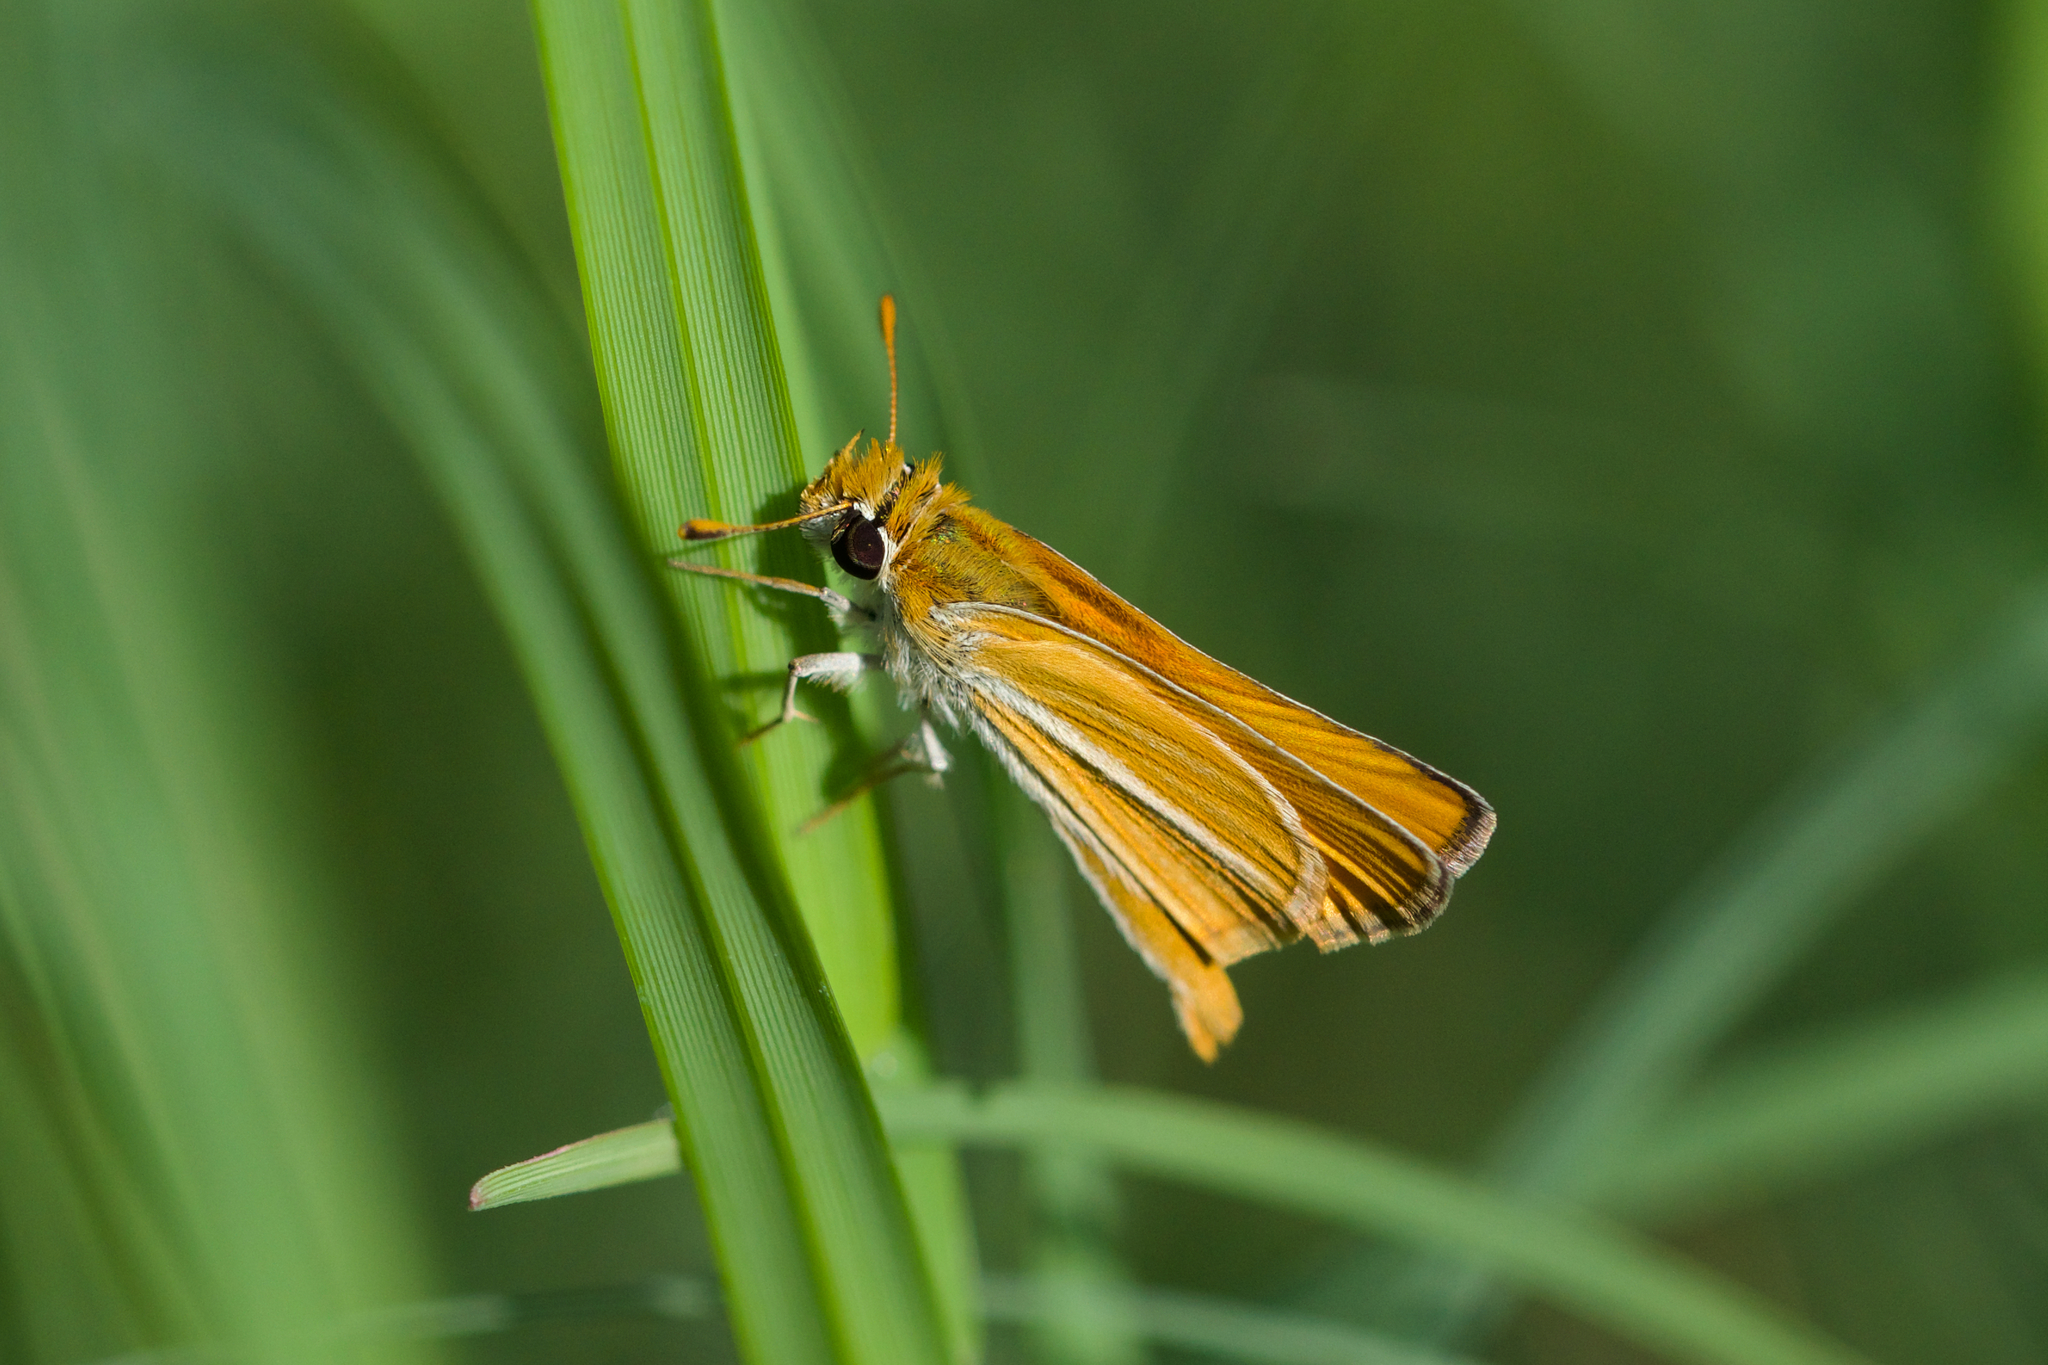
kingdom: Animalia
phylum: Arthropoda
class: Insecta
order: Lepidoptera
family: Hesperiidae
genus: Copaeodes
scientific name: Copaeodes minima
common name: Southern skipperling
